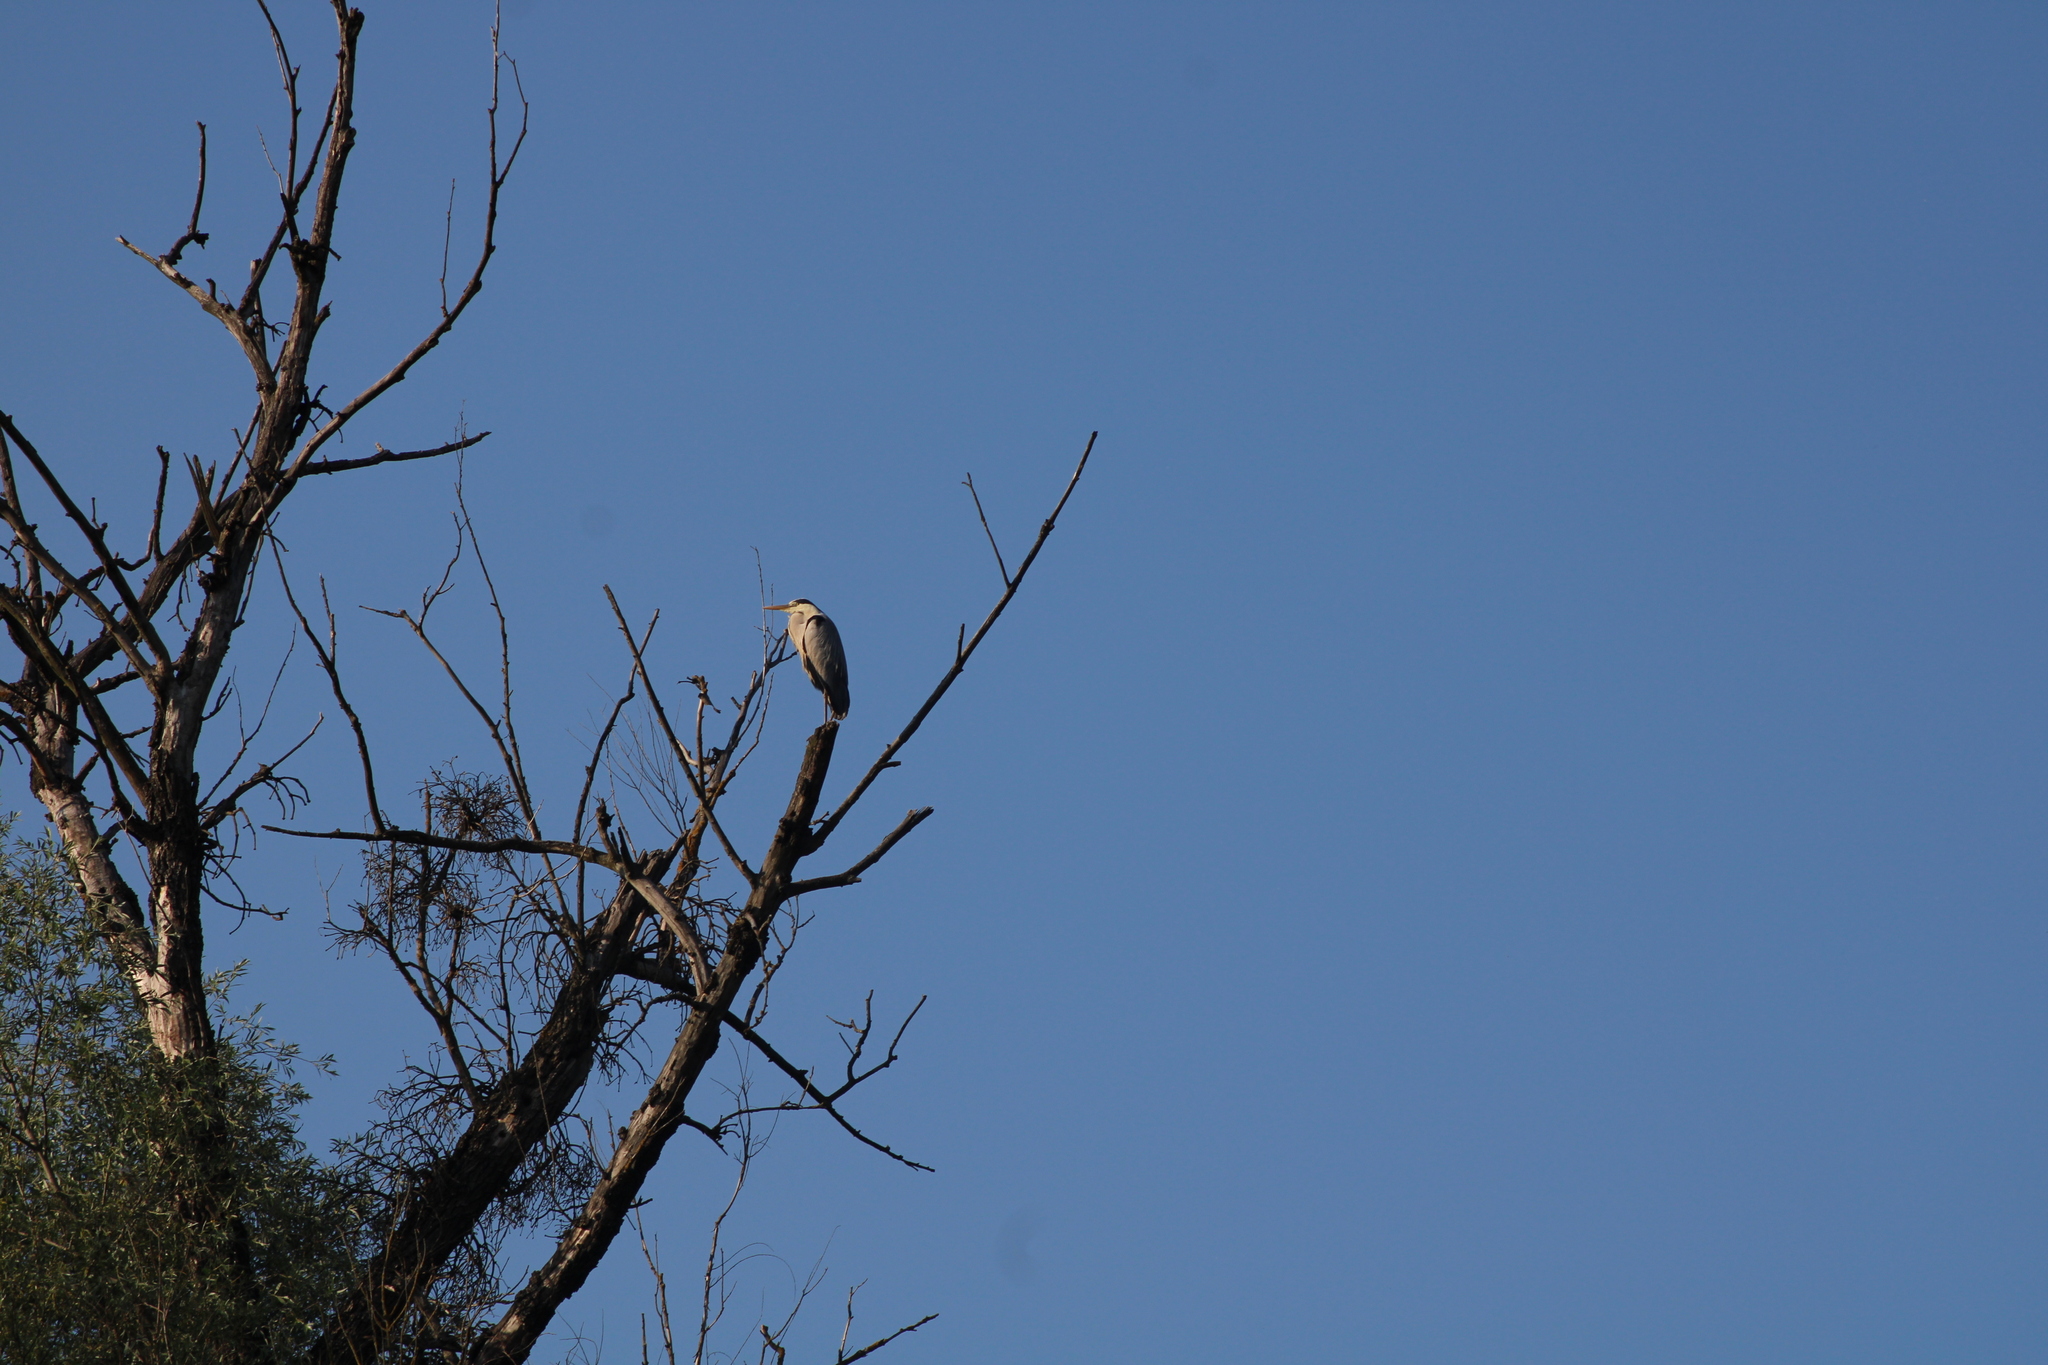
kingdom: Animalia
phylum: Chordata
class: Aves
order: Pelecaniformes
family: Ardeidae
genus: Ardea
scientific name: Ardea cinerea
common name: Grey heron
